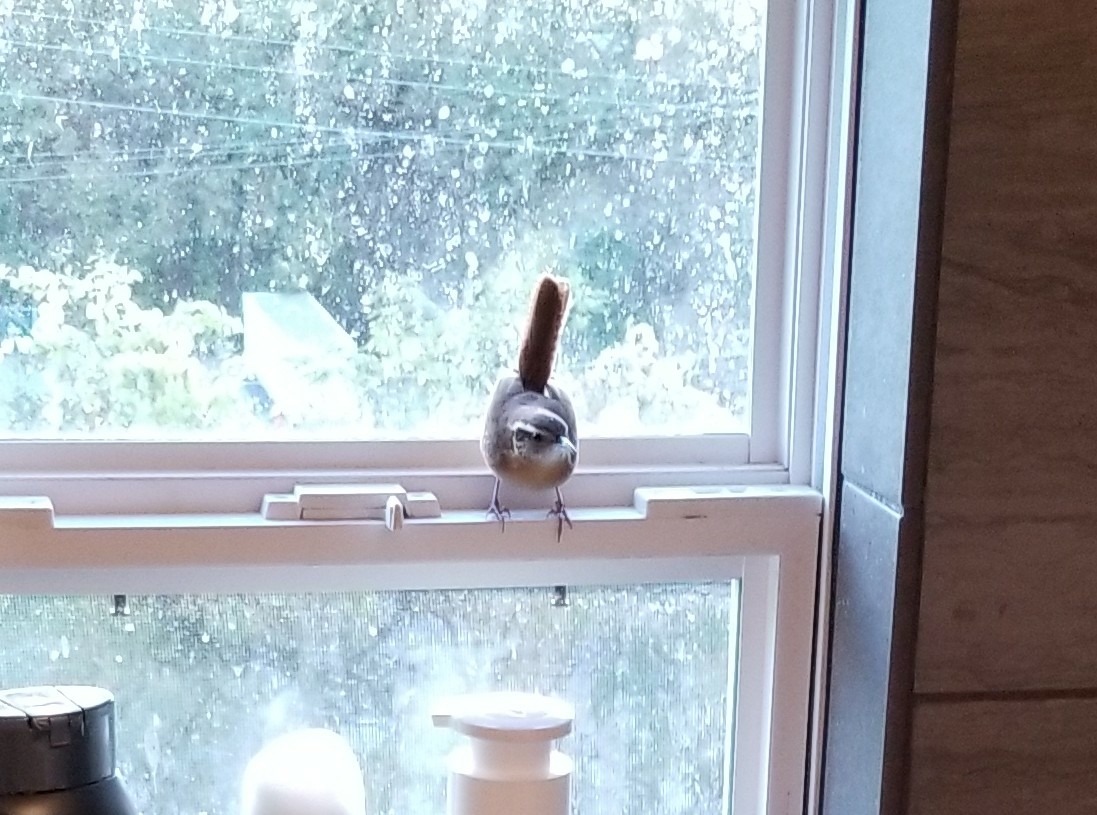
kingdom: Animalia
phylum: Chordata
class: Aves
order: Passeriformes
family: Troglodytidae
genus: Thryothorus
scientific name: Thryothorus ludovicianus
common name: Carolina wren
